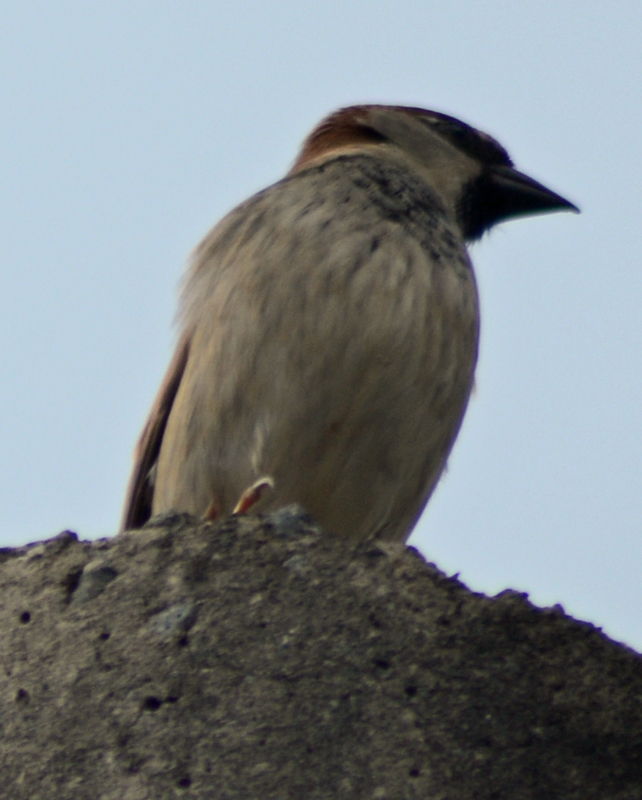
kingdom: Animalia
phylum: Chordata
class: Aves
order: Passeriformes
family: Passeridae
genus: Passer
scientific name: Passer domesticus
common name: House sparrow
